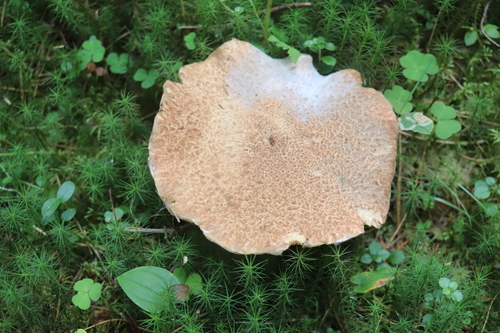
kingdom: Fungi
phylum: Basidiomycota
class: Agaricomycetes
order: Boletales
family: Suillaceae
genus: Suillus
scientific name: Suillus spraguei
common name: Painted suillus
